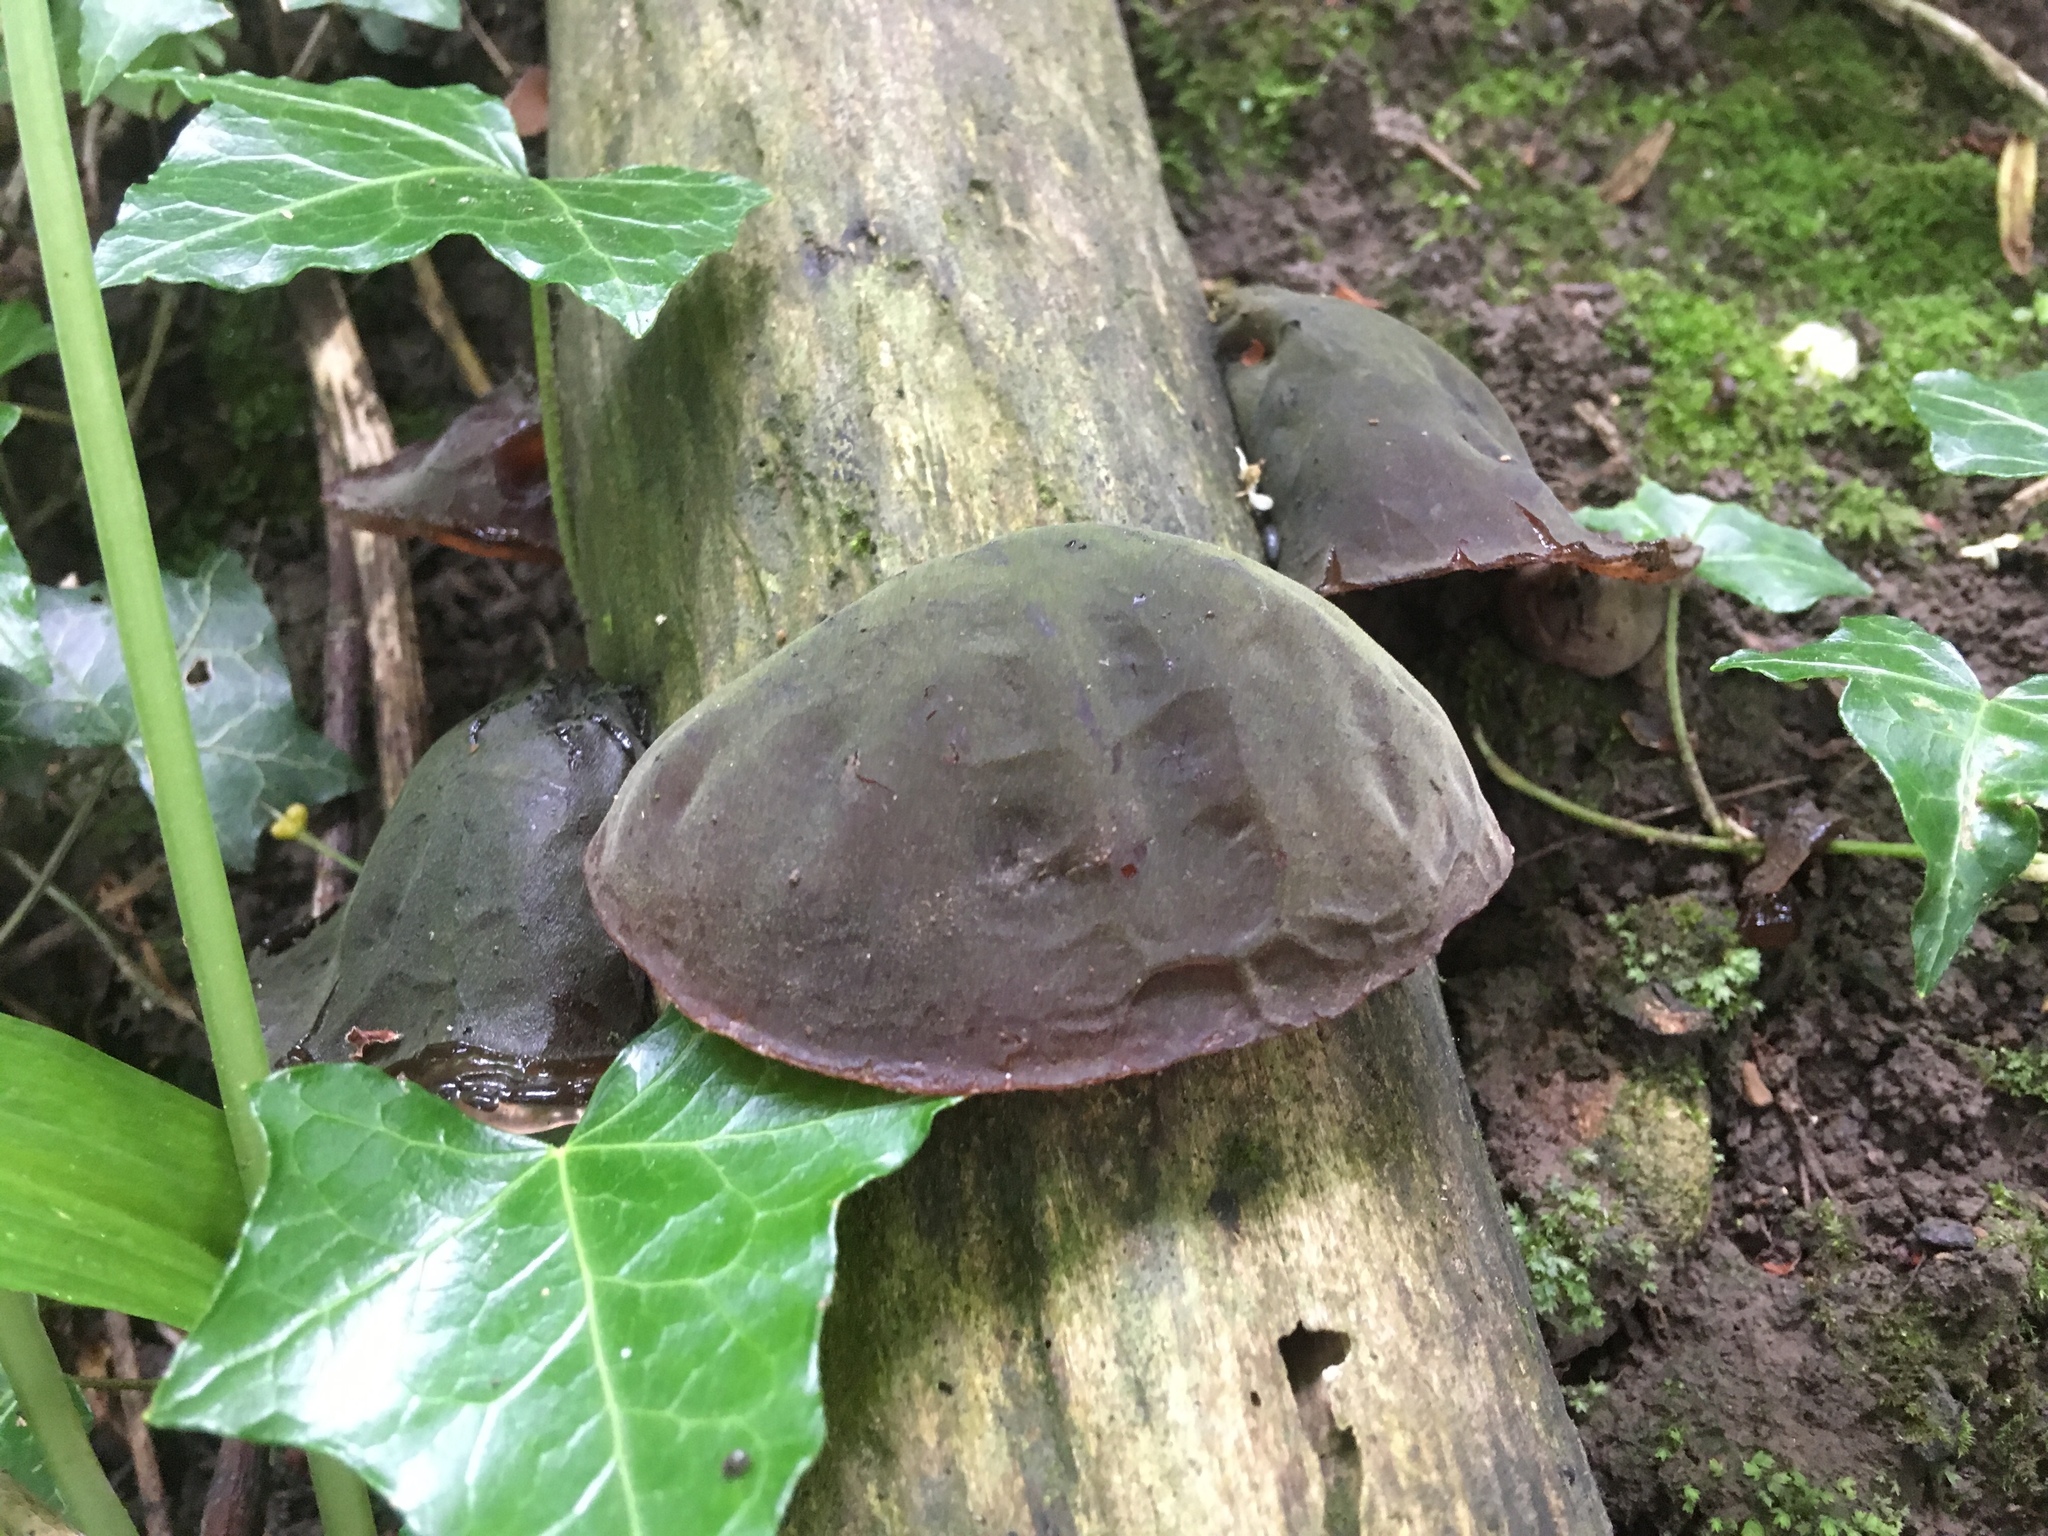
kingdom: Fungi
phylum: Basidiomycota
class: Agaricomycetes
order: Auriculariales
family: Auriculariaceae
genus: Auricularia
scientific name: Auricularia auricula-judae
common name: Jelly ear
